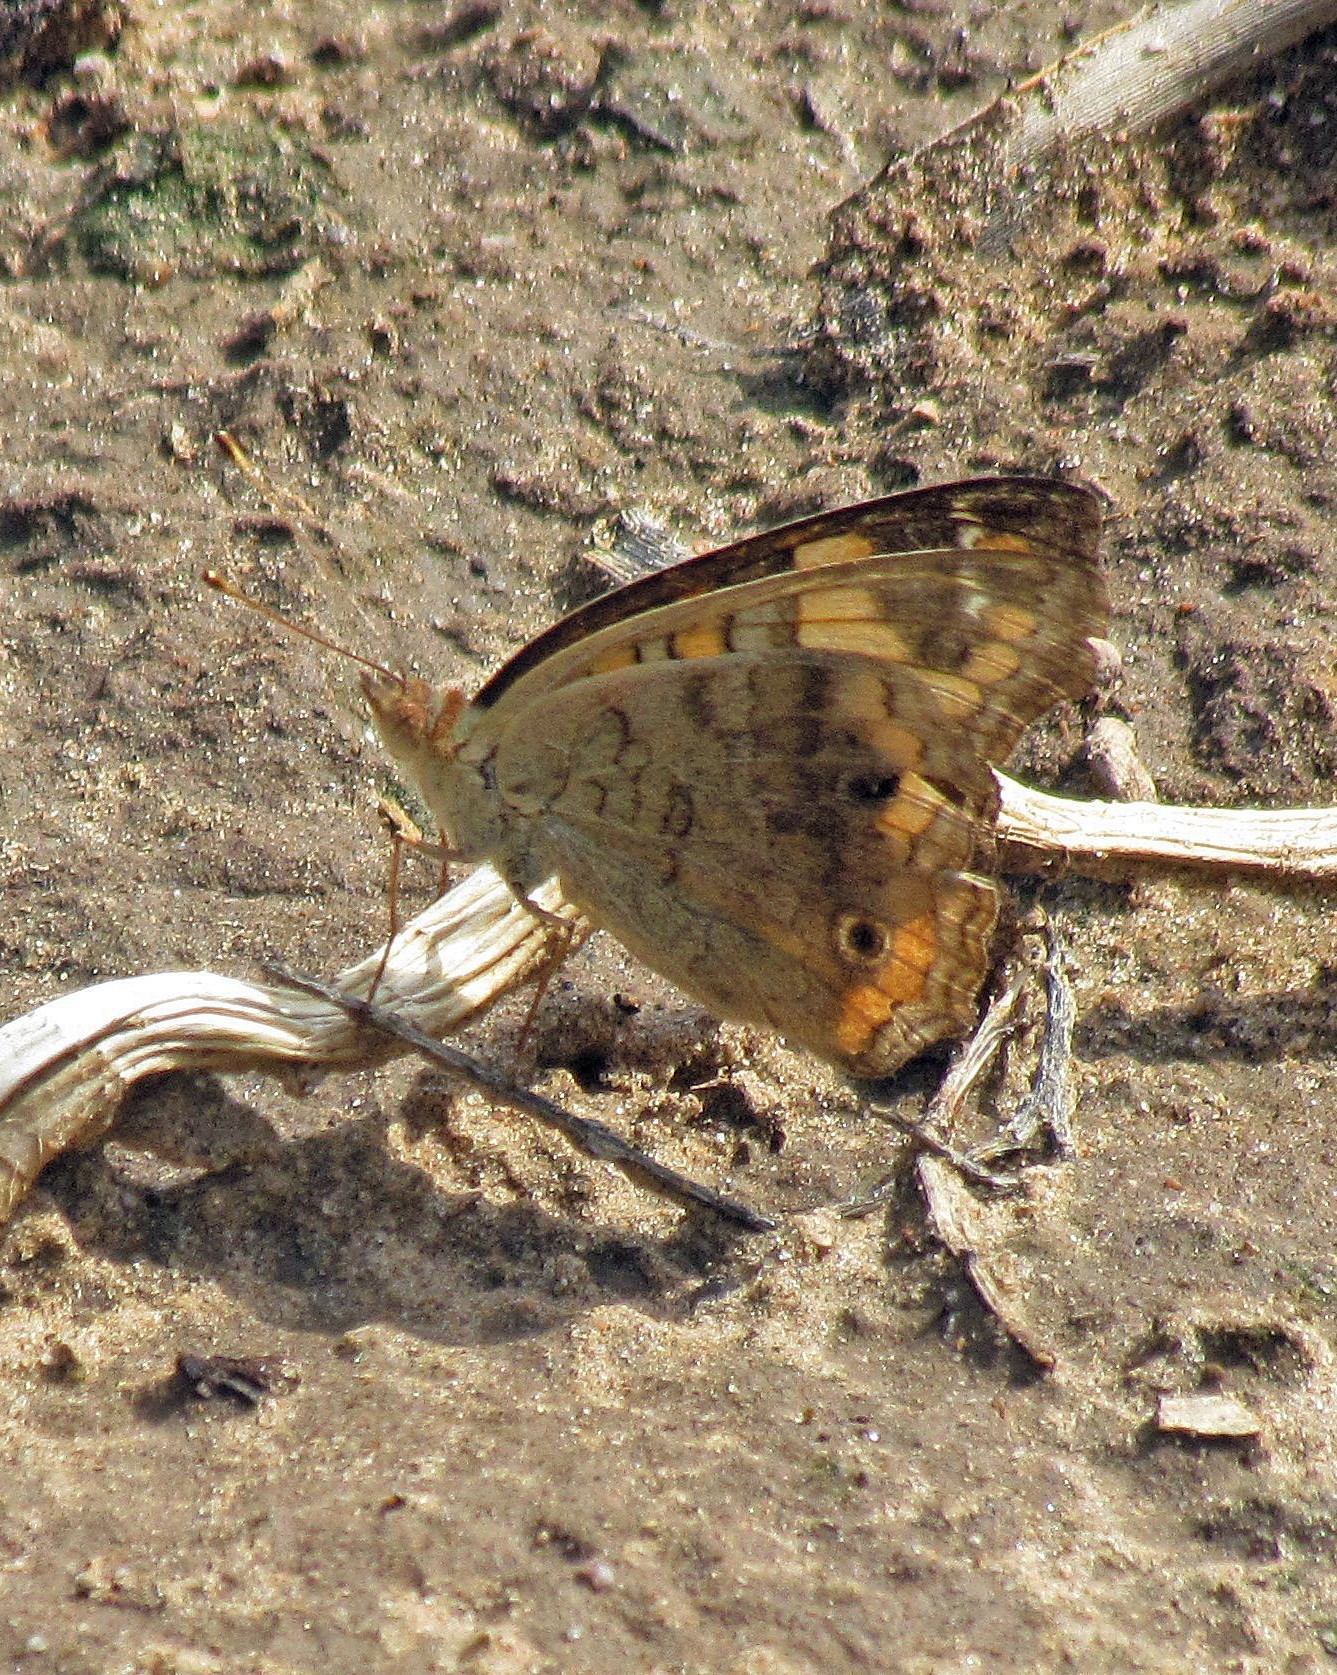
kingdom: Animalia
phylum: Arthropoda
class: Insecta
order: Lepidoptera
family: Nymphalidae
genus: Junonia
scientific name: Junonia lavinia
